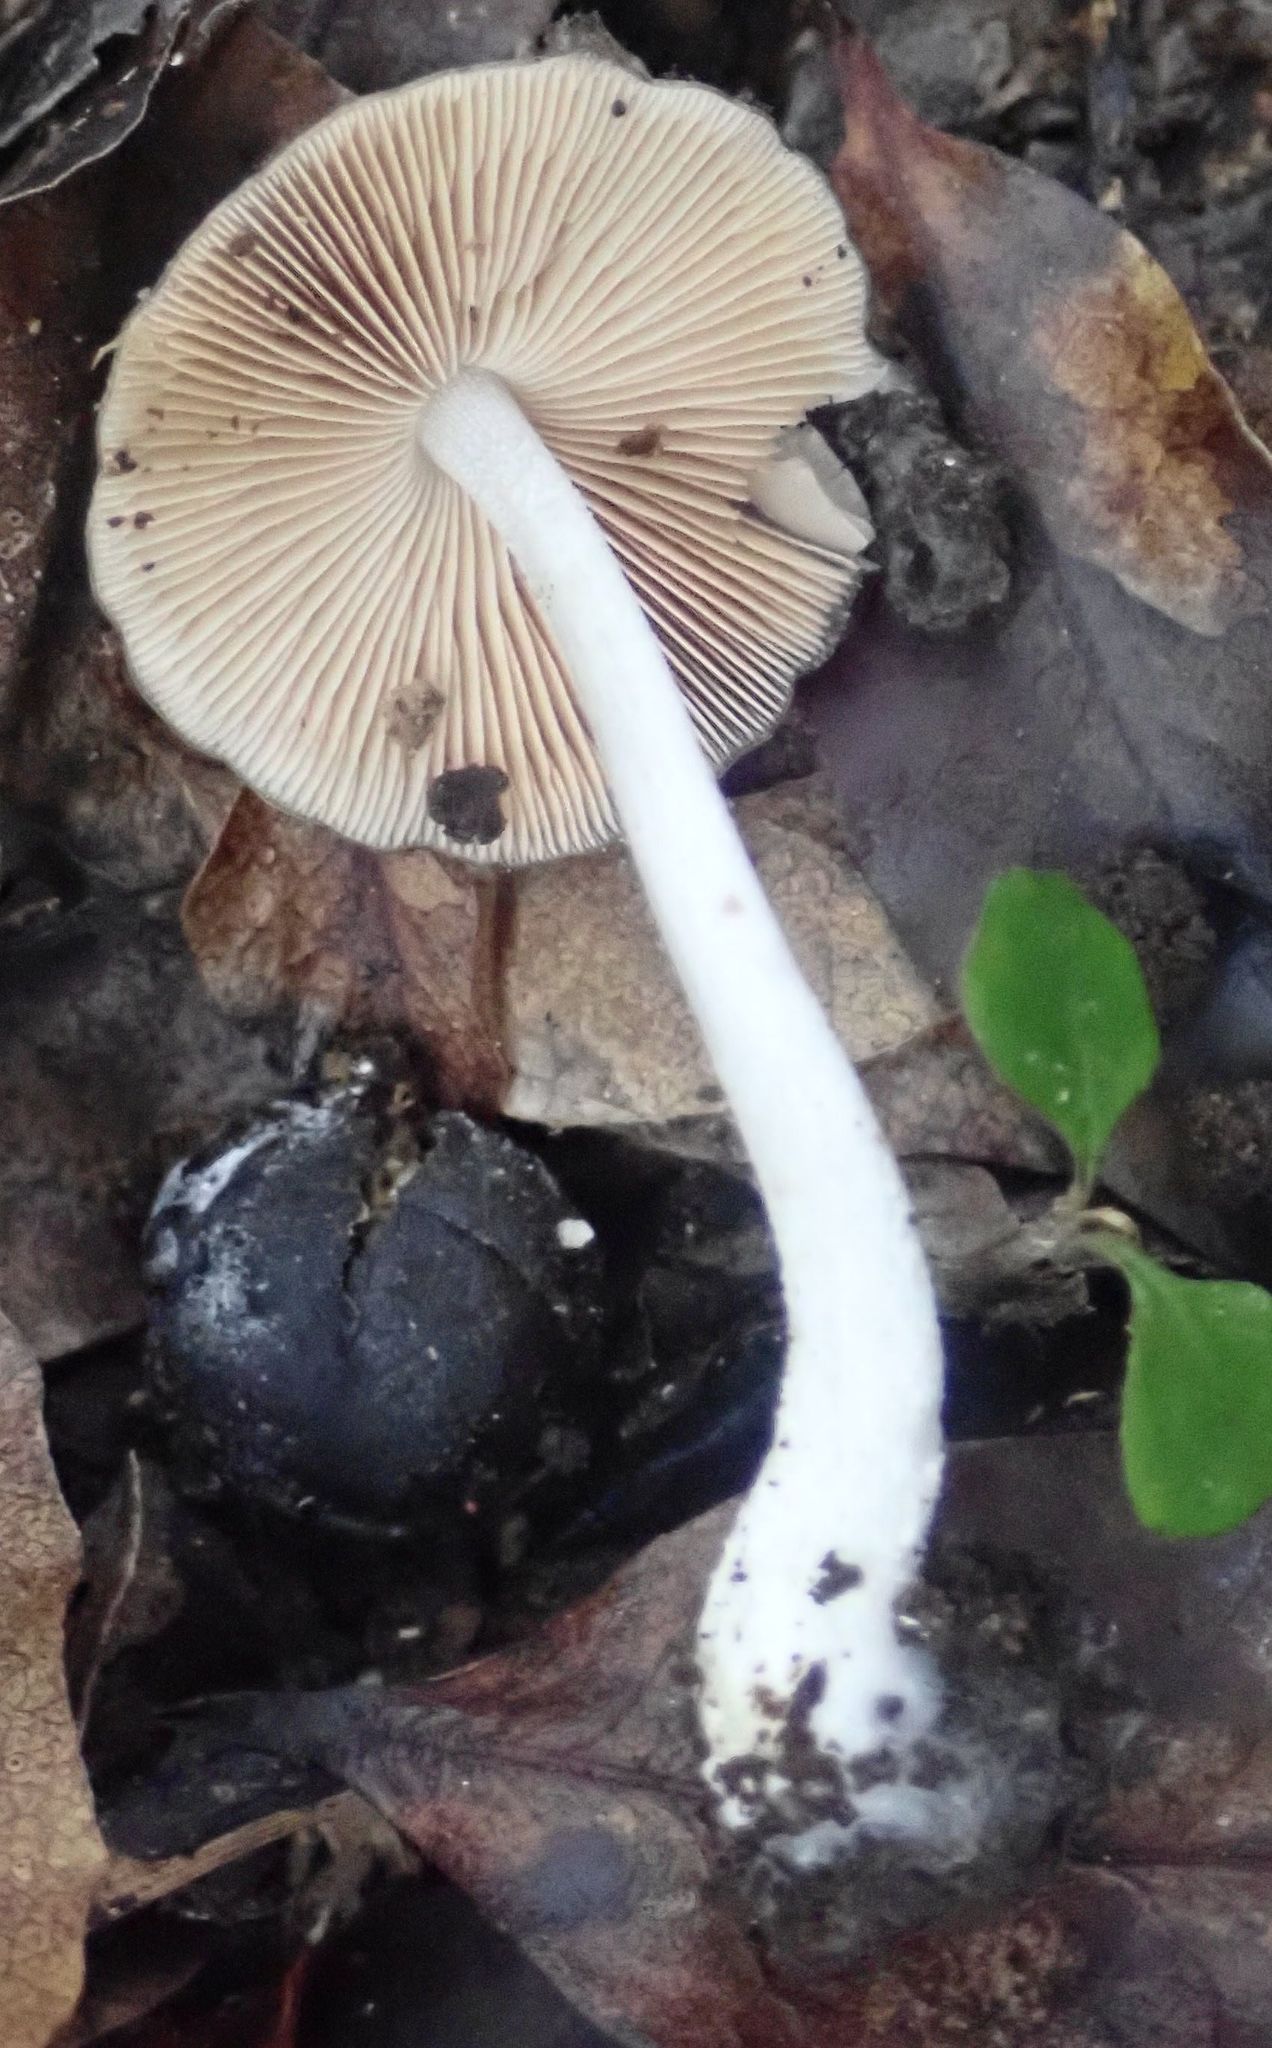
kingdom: Fungi
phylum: Basidiomycota
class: Agaricomycetes
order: Agaricales
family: Bolbitiaceae
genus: Bolbitius
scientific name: Bolbitius muscicola
